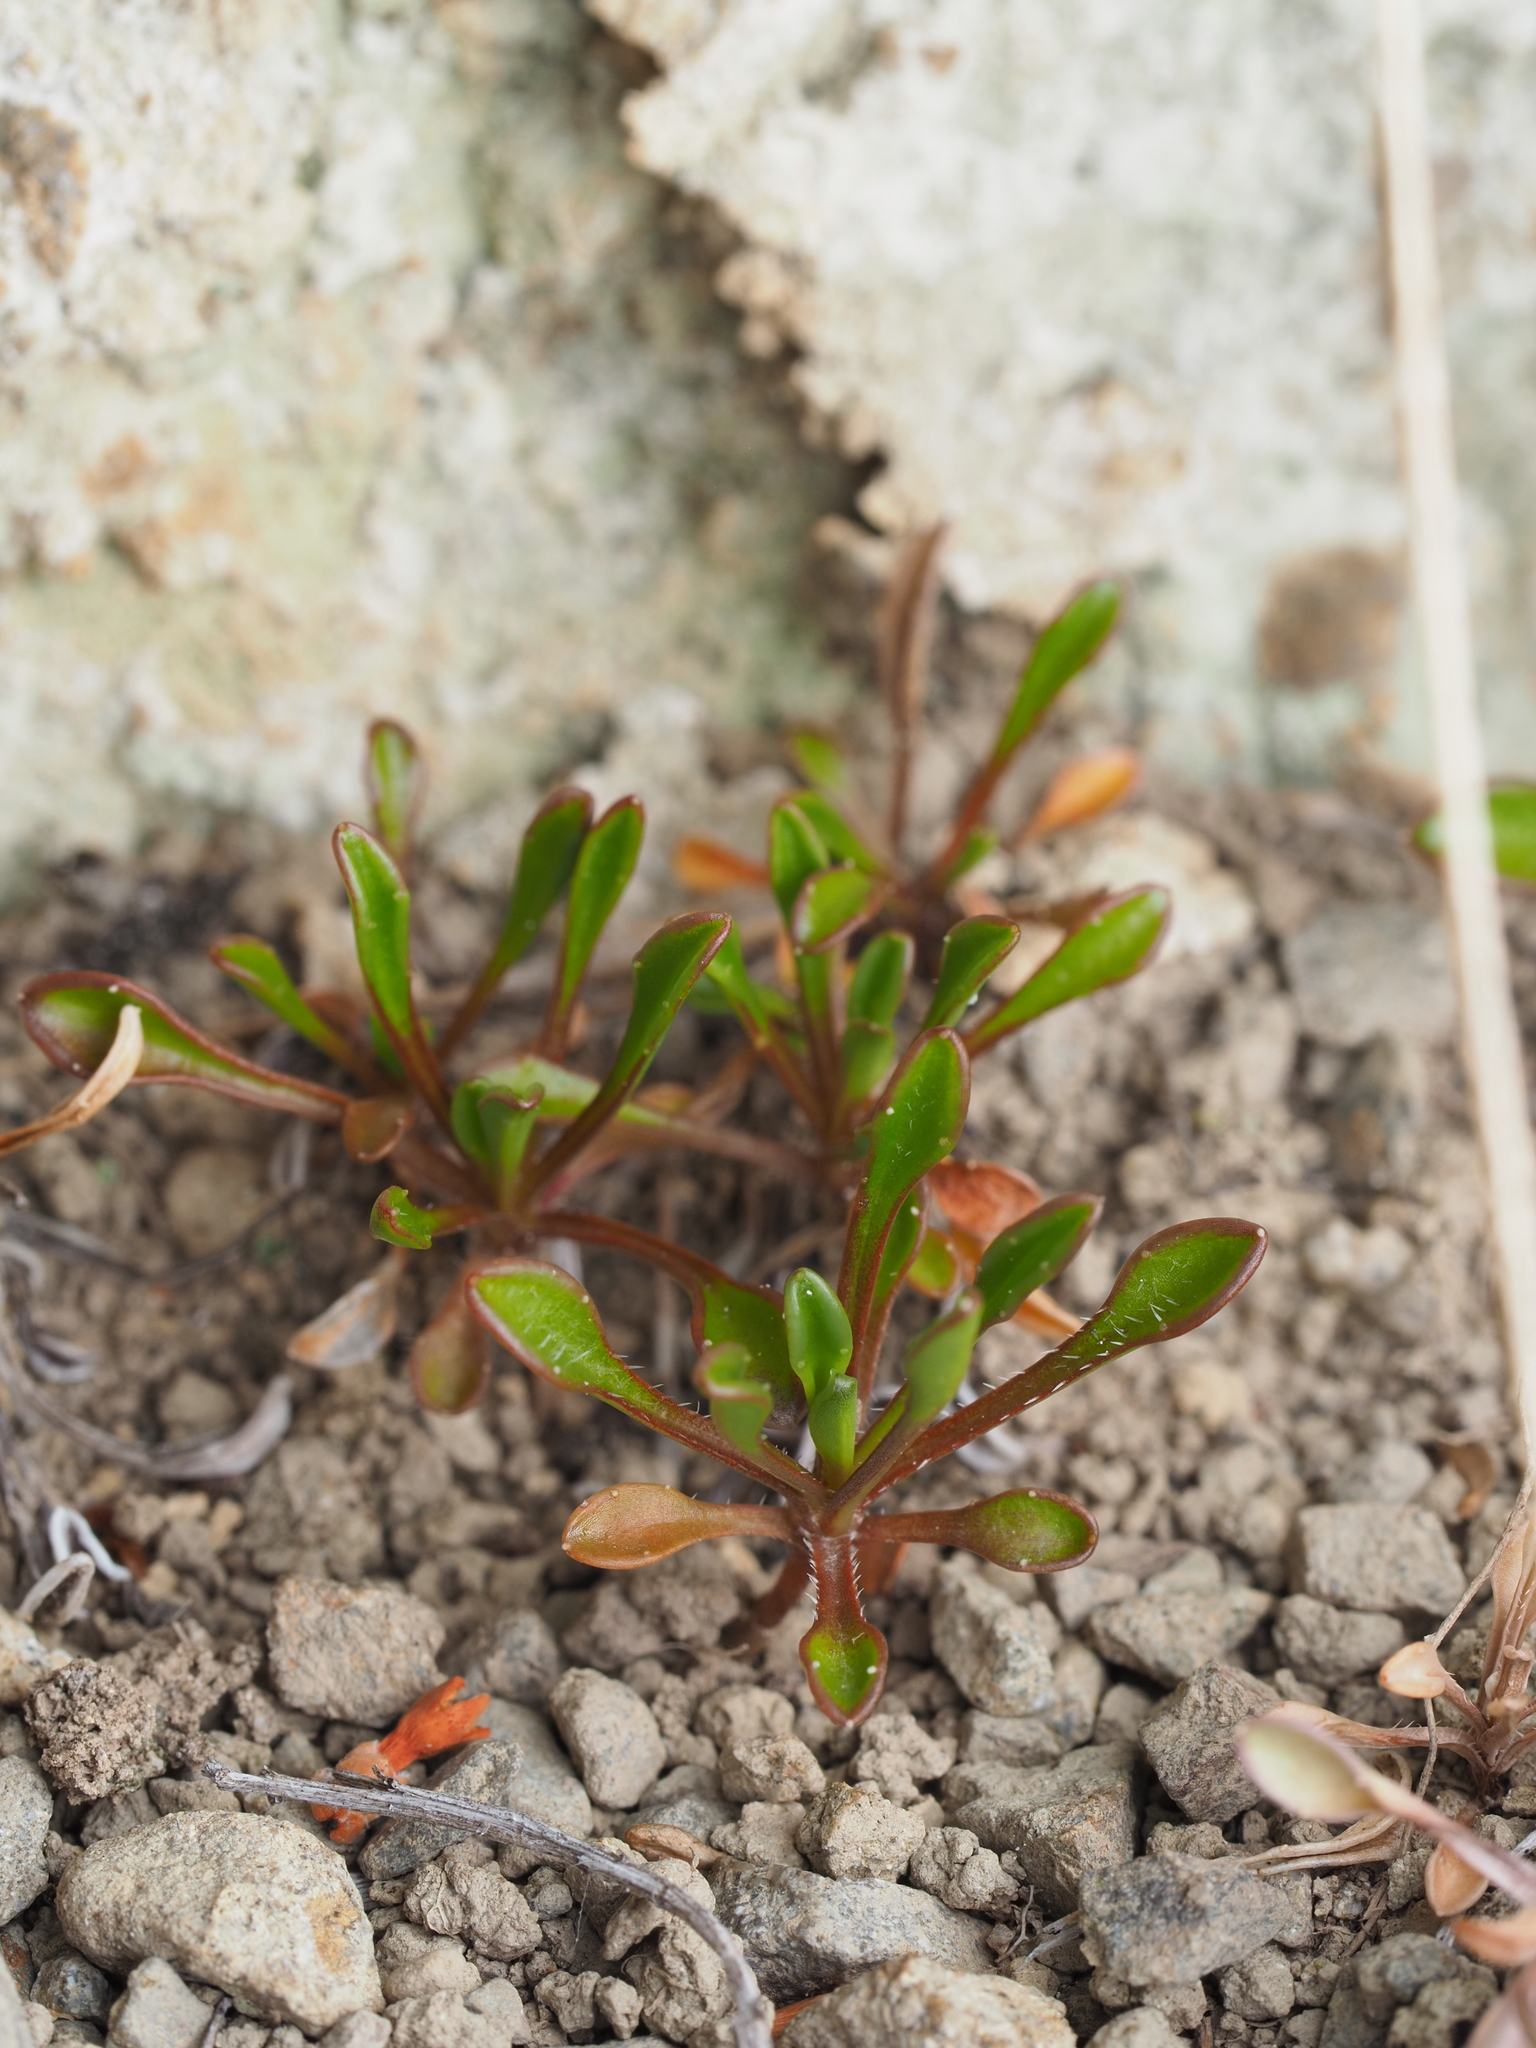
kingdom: Plantae
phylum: Tracheophyta
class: Magnoliopsida
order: Asterales
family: Campanulaceae
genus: Wahlenbergia
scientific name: Wahlenbergia albomarginata
